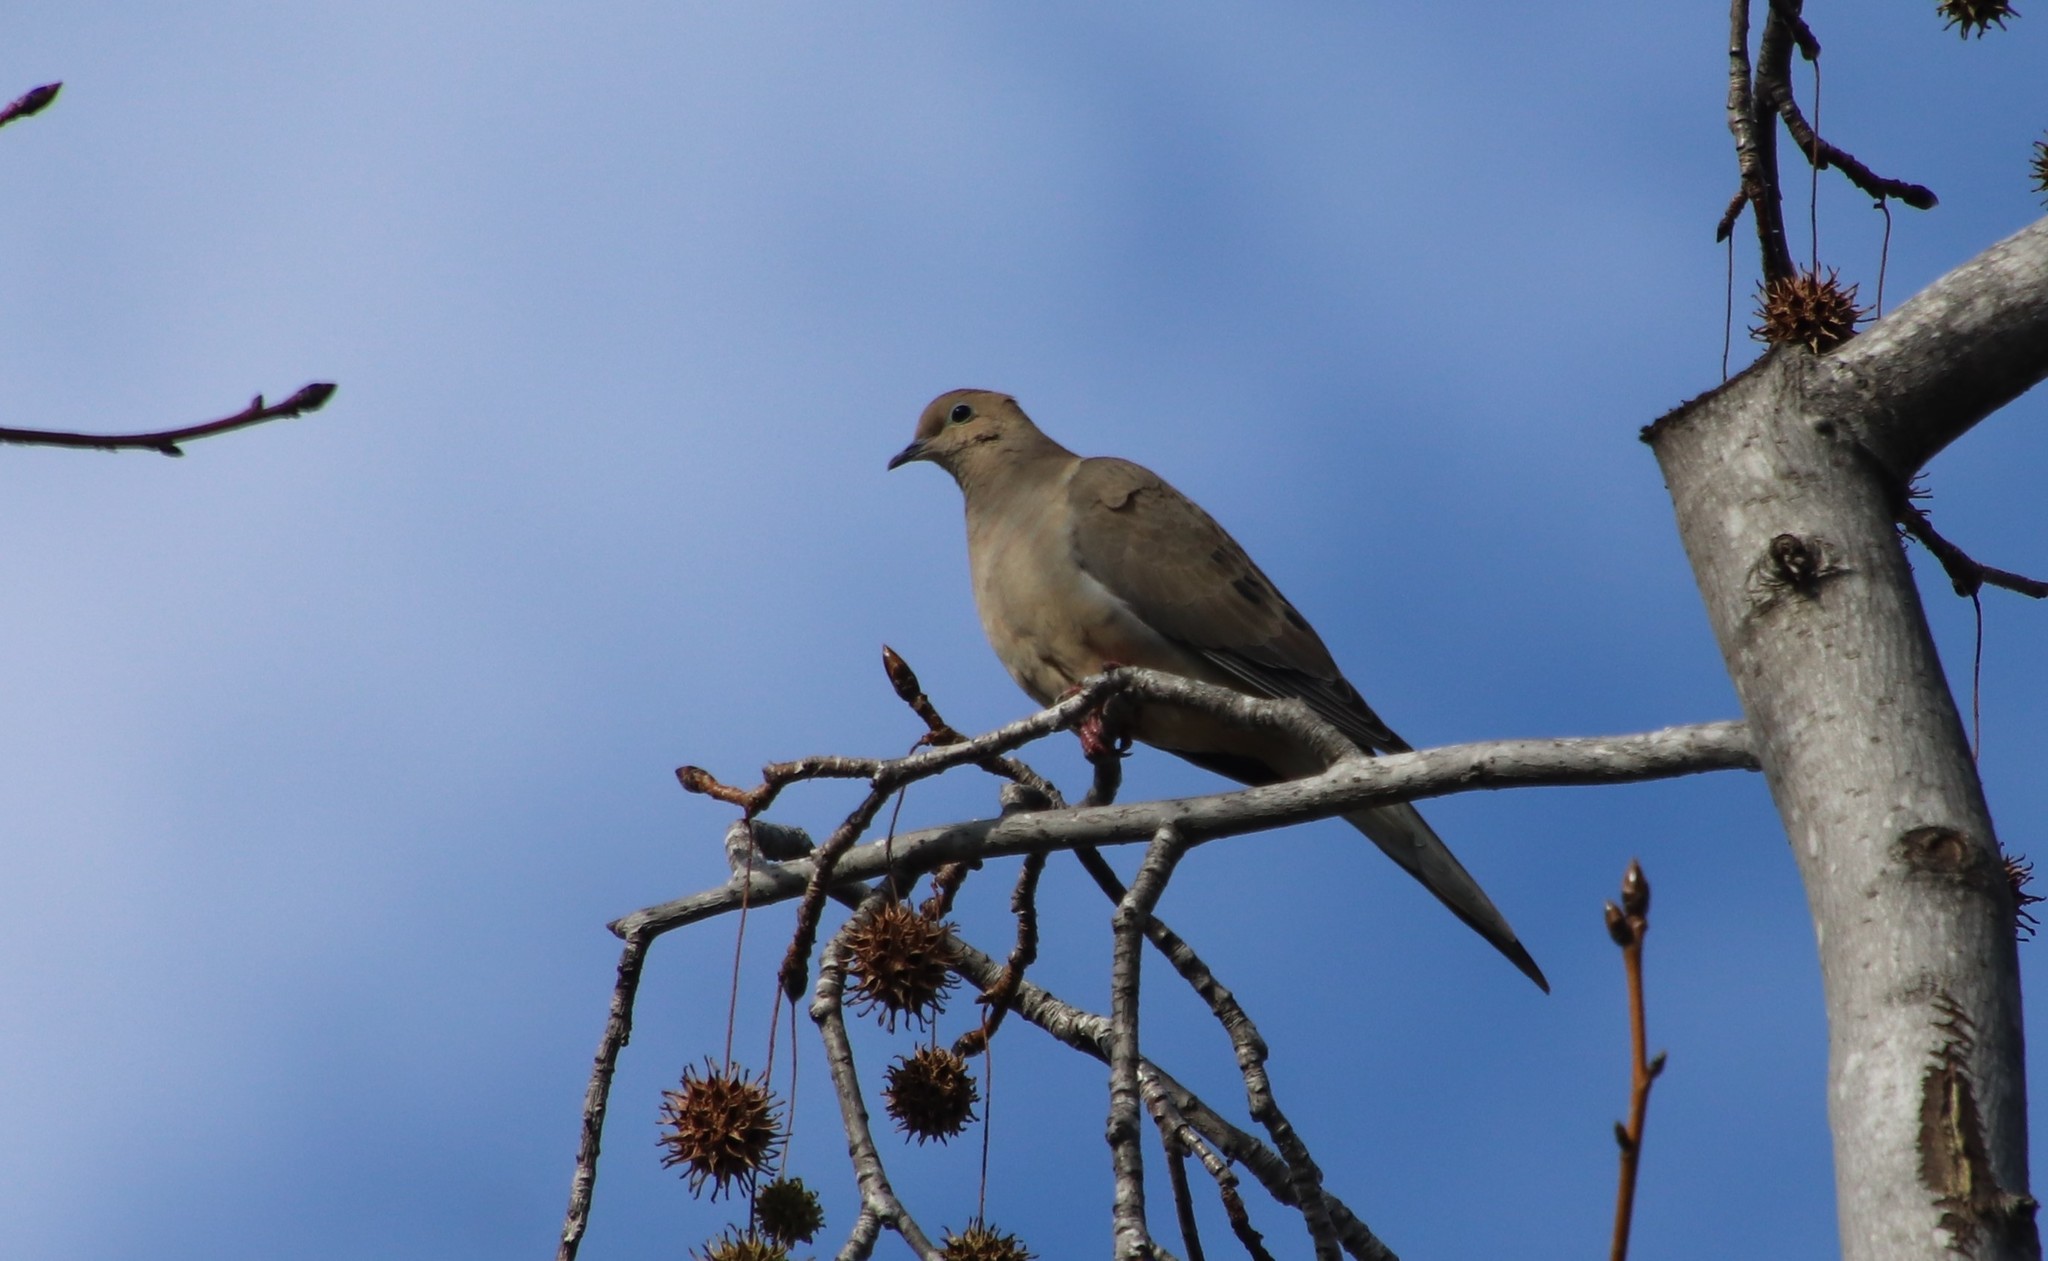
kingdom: Animalia
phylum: Chordata
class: Aves
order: Columbiformes
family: Columbidae
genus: Zenaida
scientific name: Zenaida macroura
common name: Mourning dove
